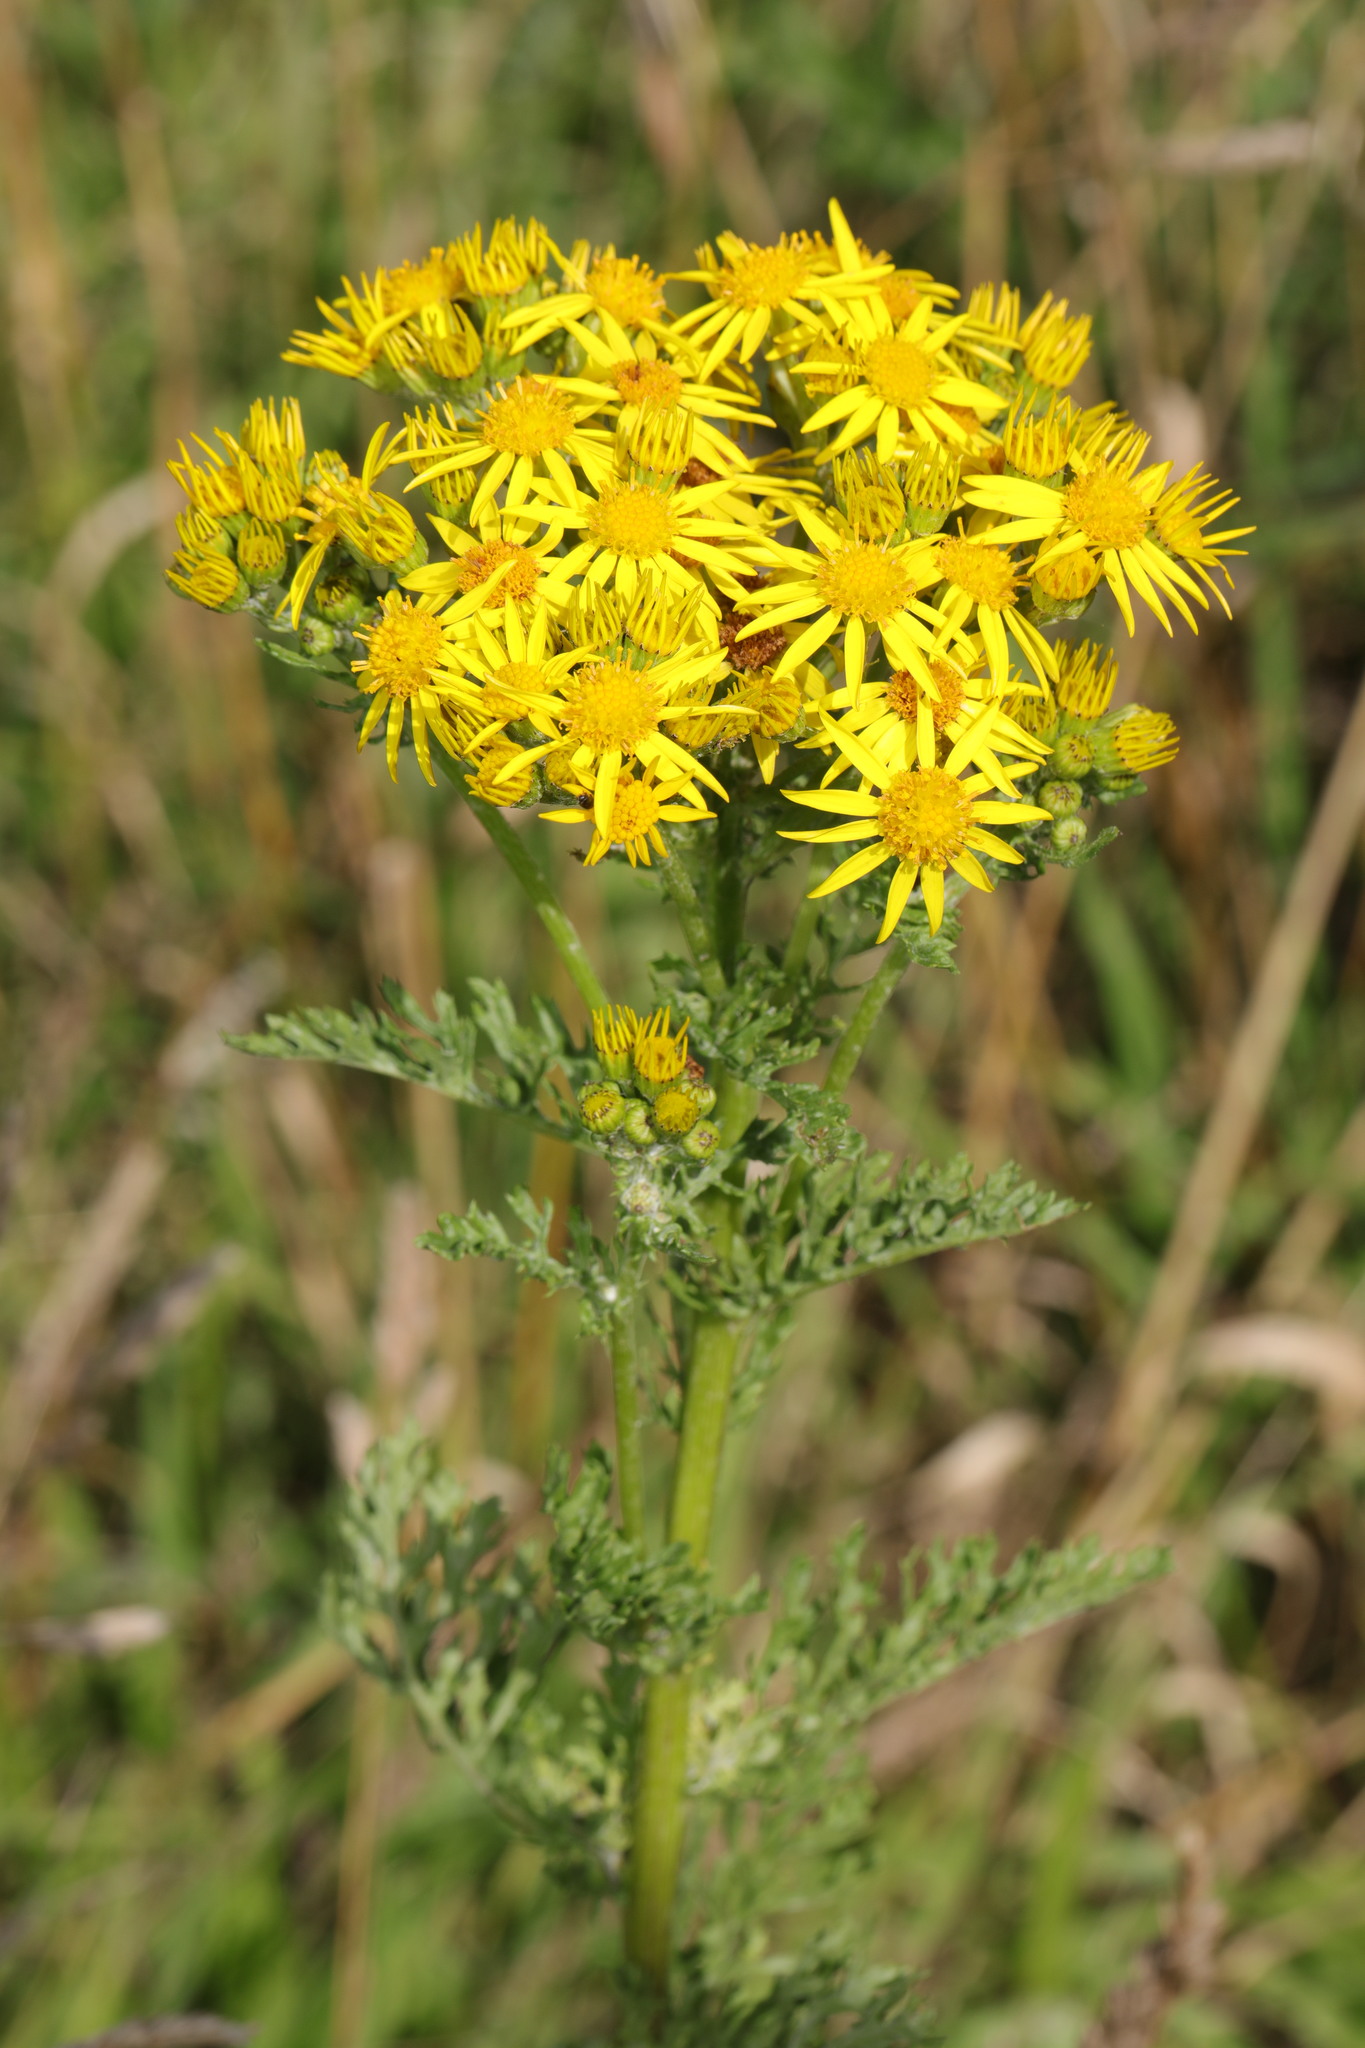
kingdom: Plantae
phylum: Tracheophyta
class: Magnoliopsida
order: Asterales
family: Asteraceae
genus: Jacobaea
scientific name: Jacobaea vulgaris
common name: Stinking willie
